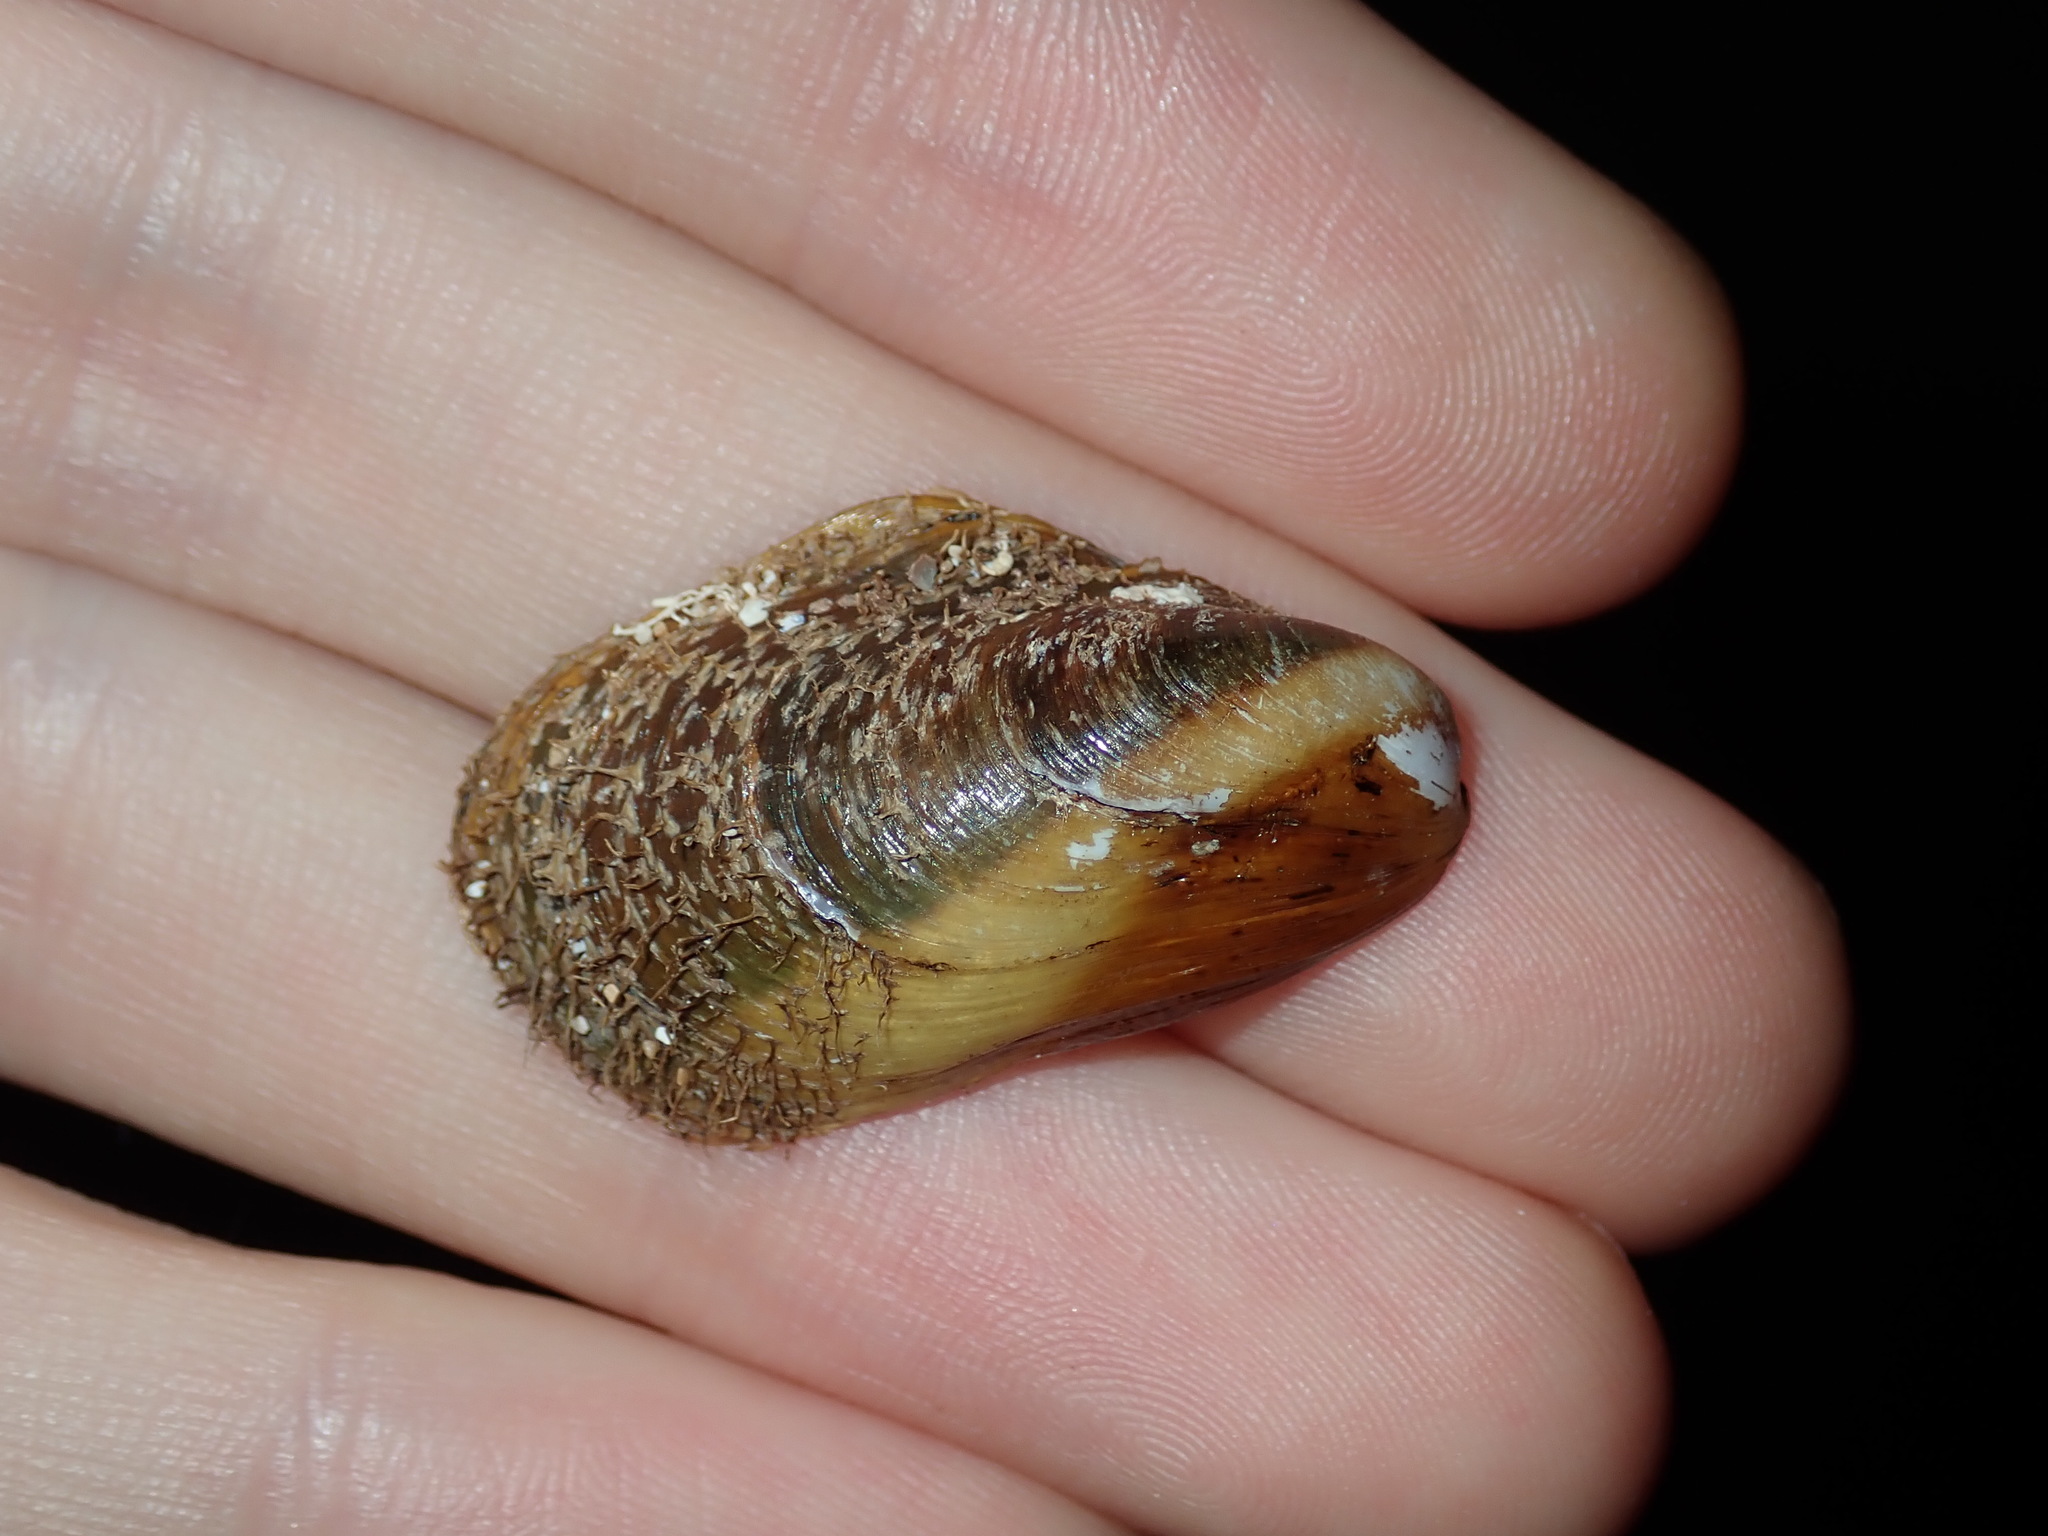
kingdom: Animalia
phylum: Mollusca
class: Bivalvia
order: Mytilida
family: Mytilidae
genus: Modiolus
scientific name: Modiolus areolatus
